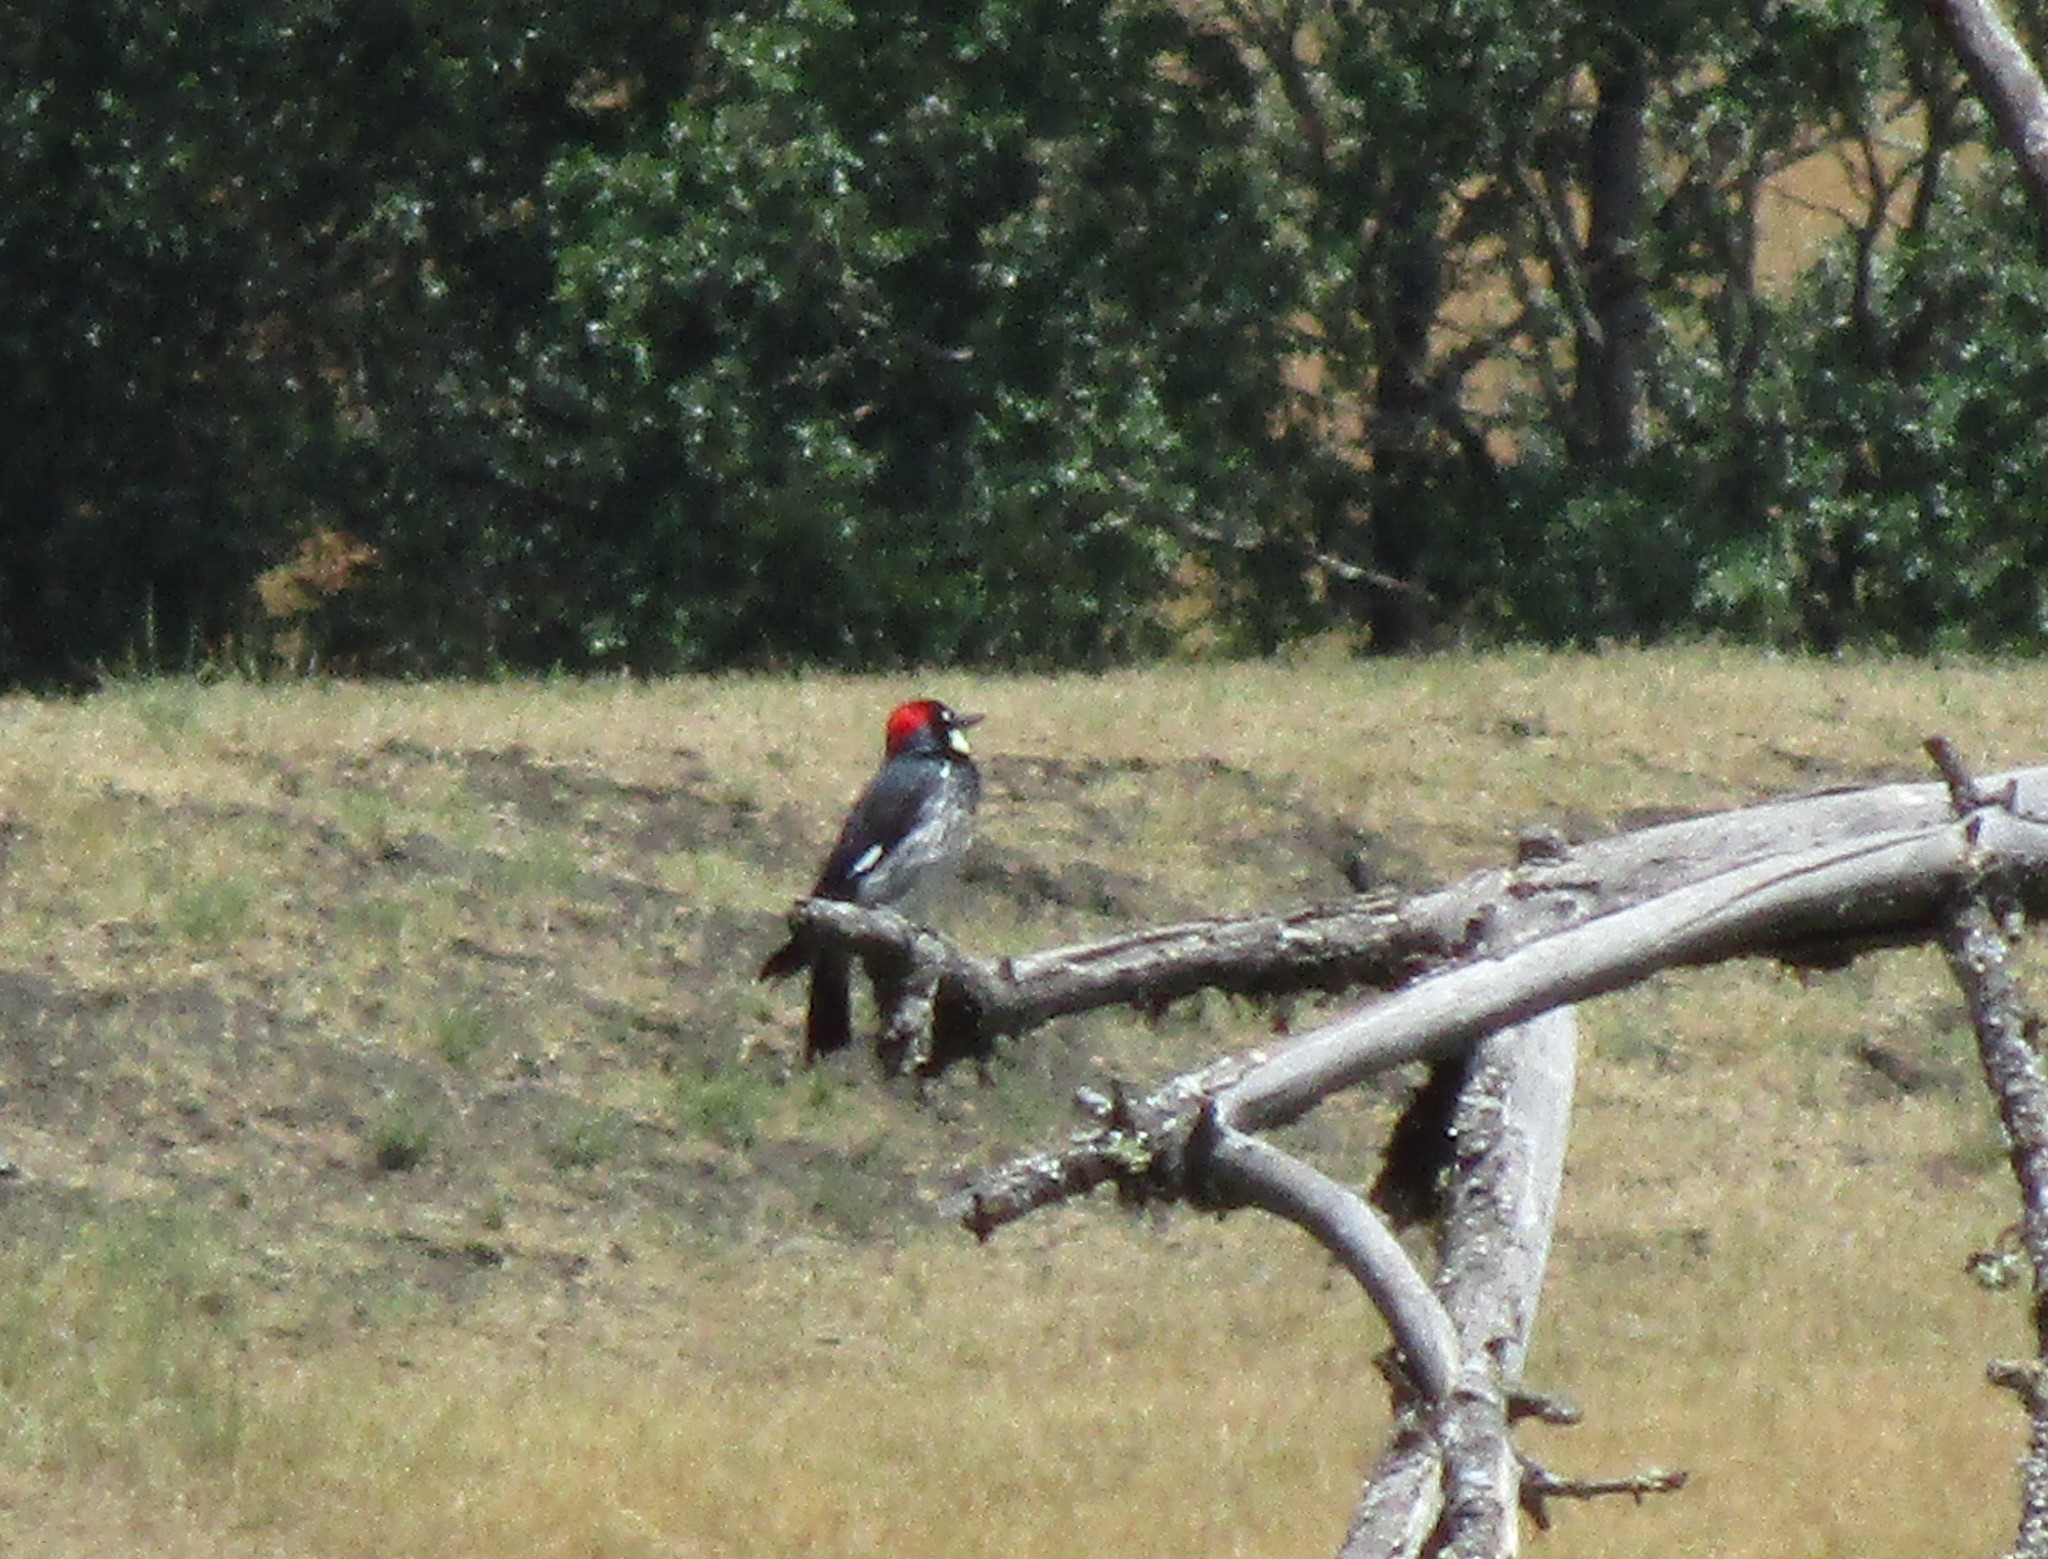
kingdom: Animalia
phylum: Chordata
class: Aves
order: Piciformes
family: Picidae
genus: Melanerpes
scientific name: Melanerpes formicivorus
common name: Acorn woodpecker
